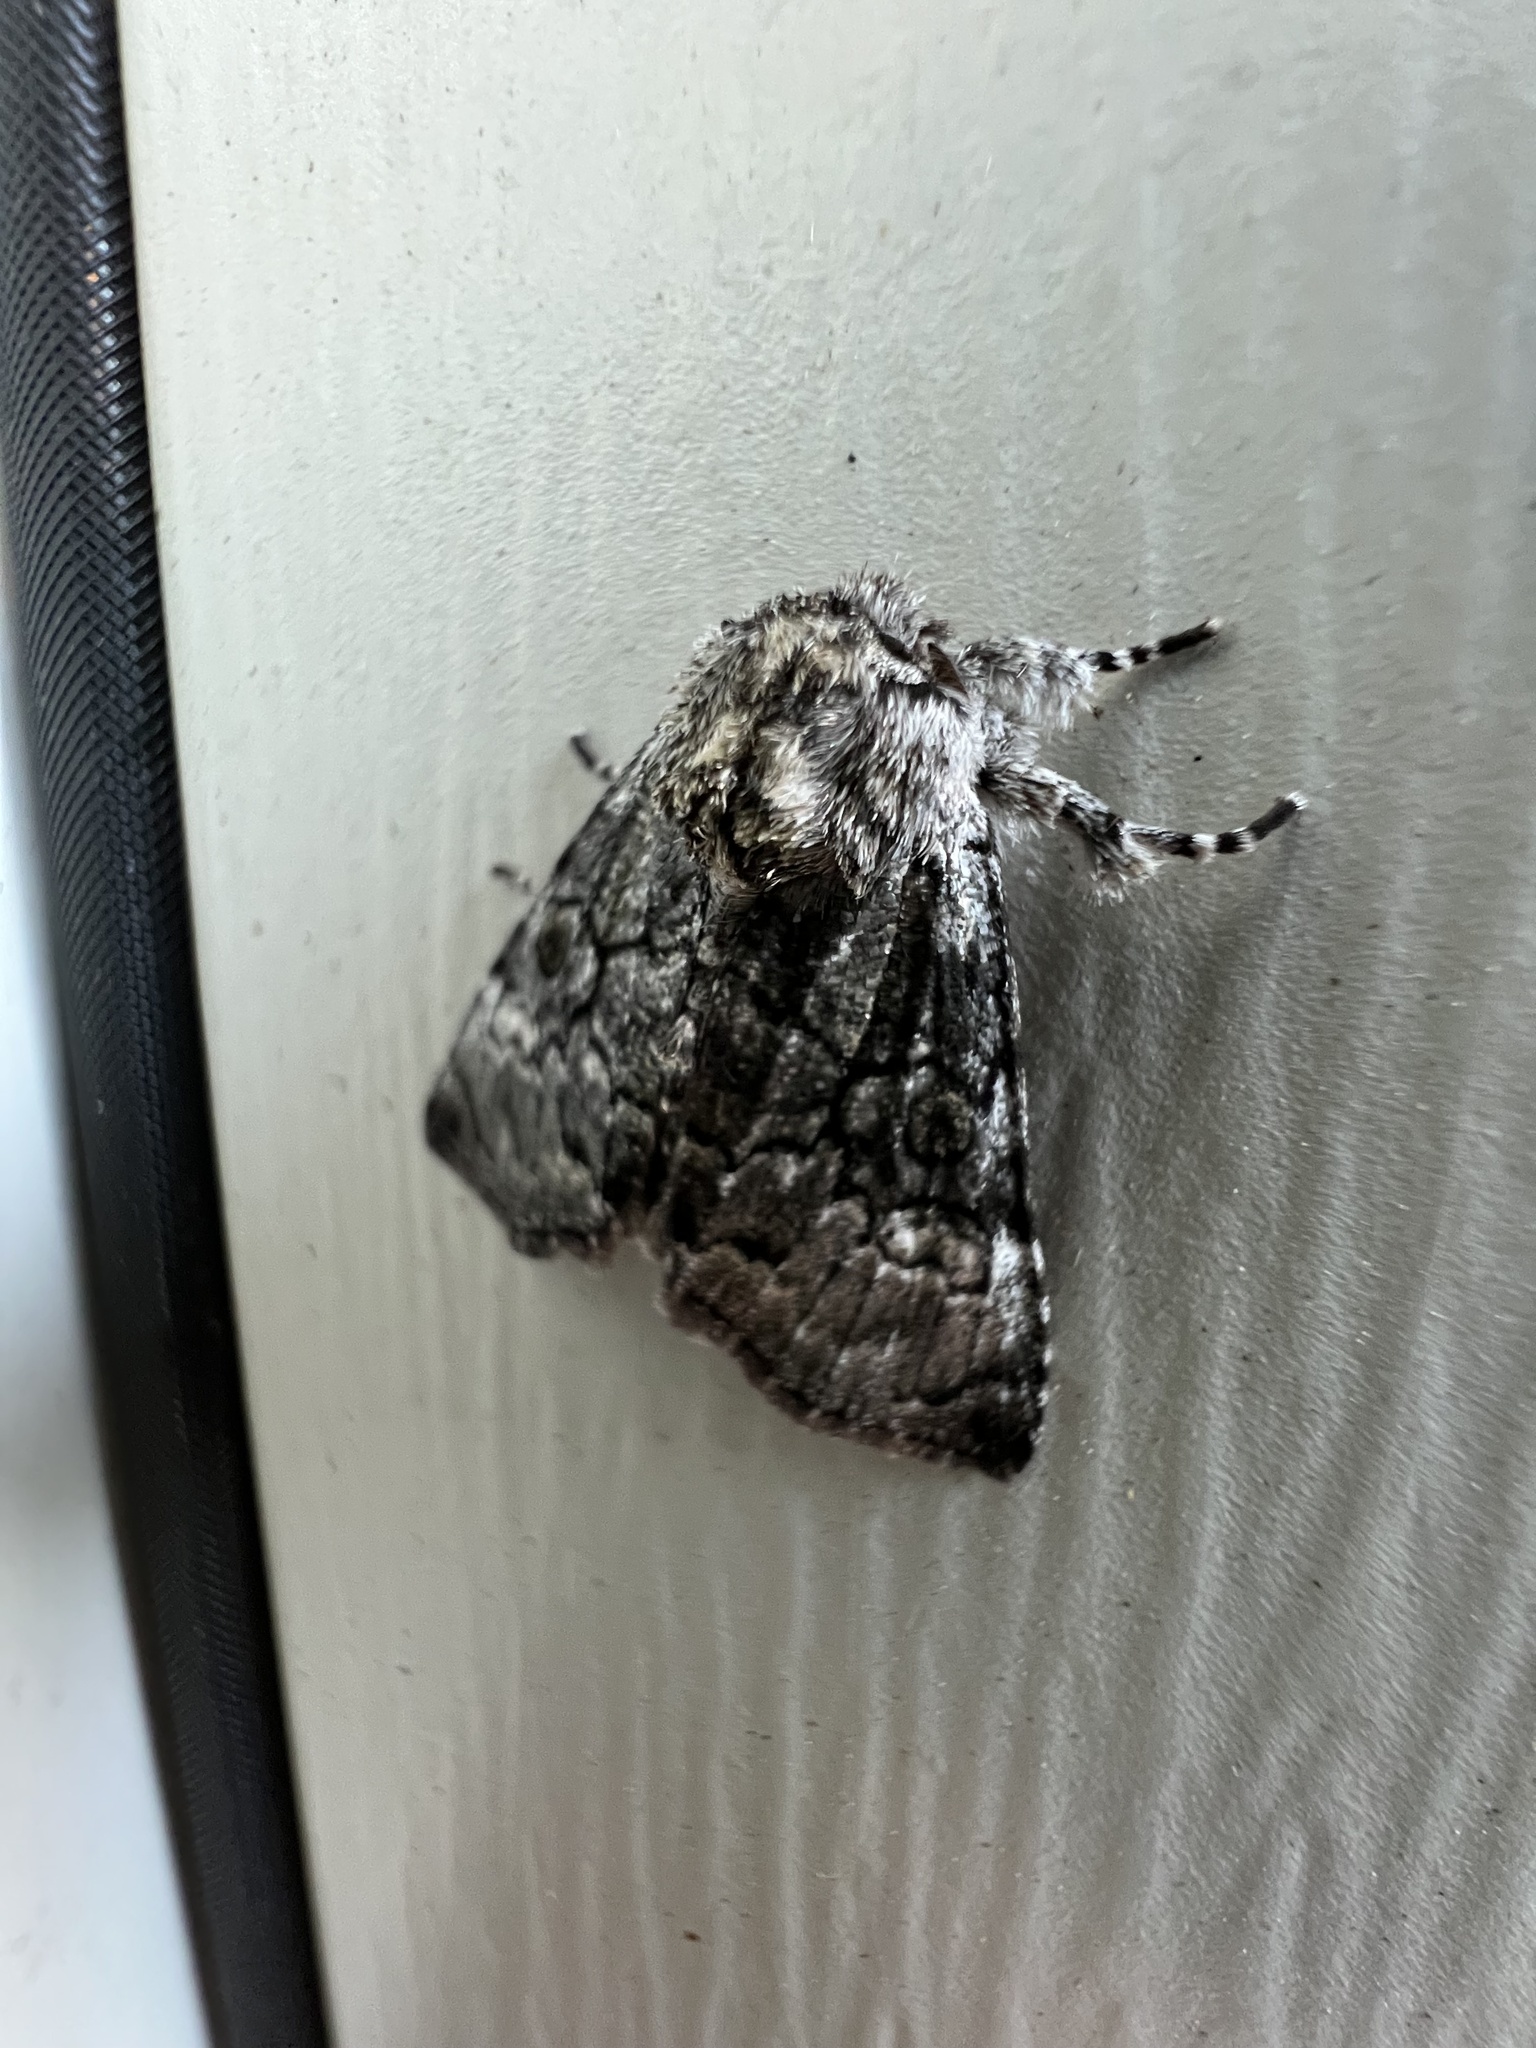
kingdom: Animalia
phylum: Arthropoda
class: Insecta
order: Lepidoptera
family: Noctuidae
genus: Charadra
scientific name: Charadra deridens
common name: Marbled tuffet
